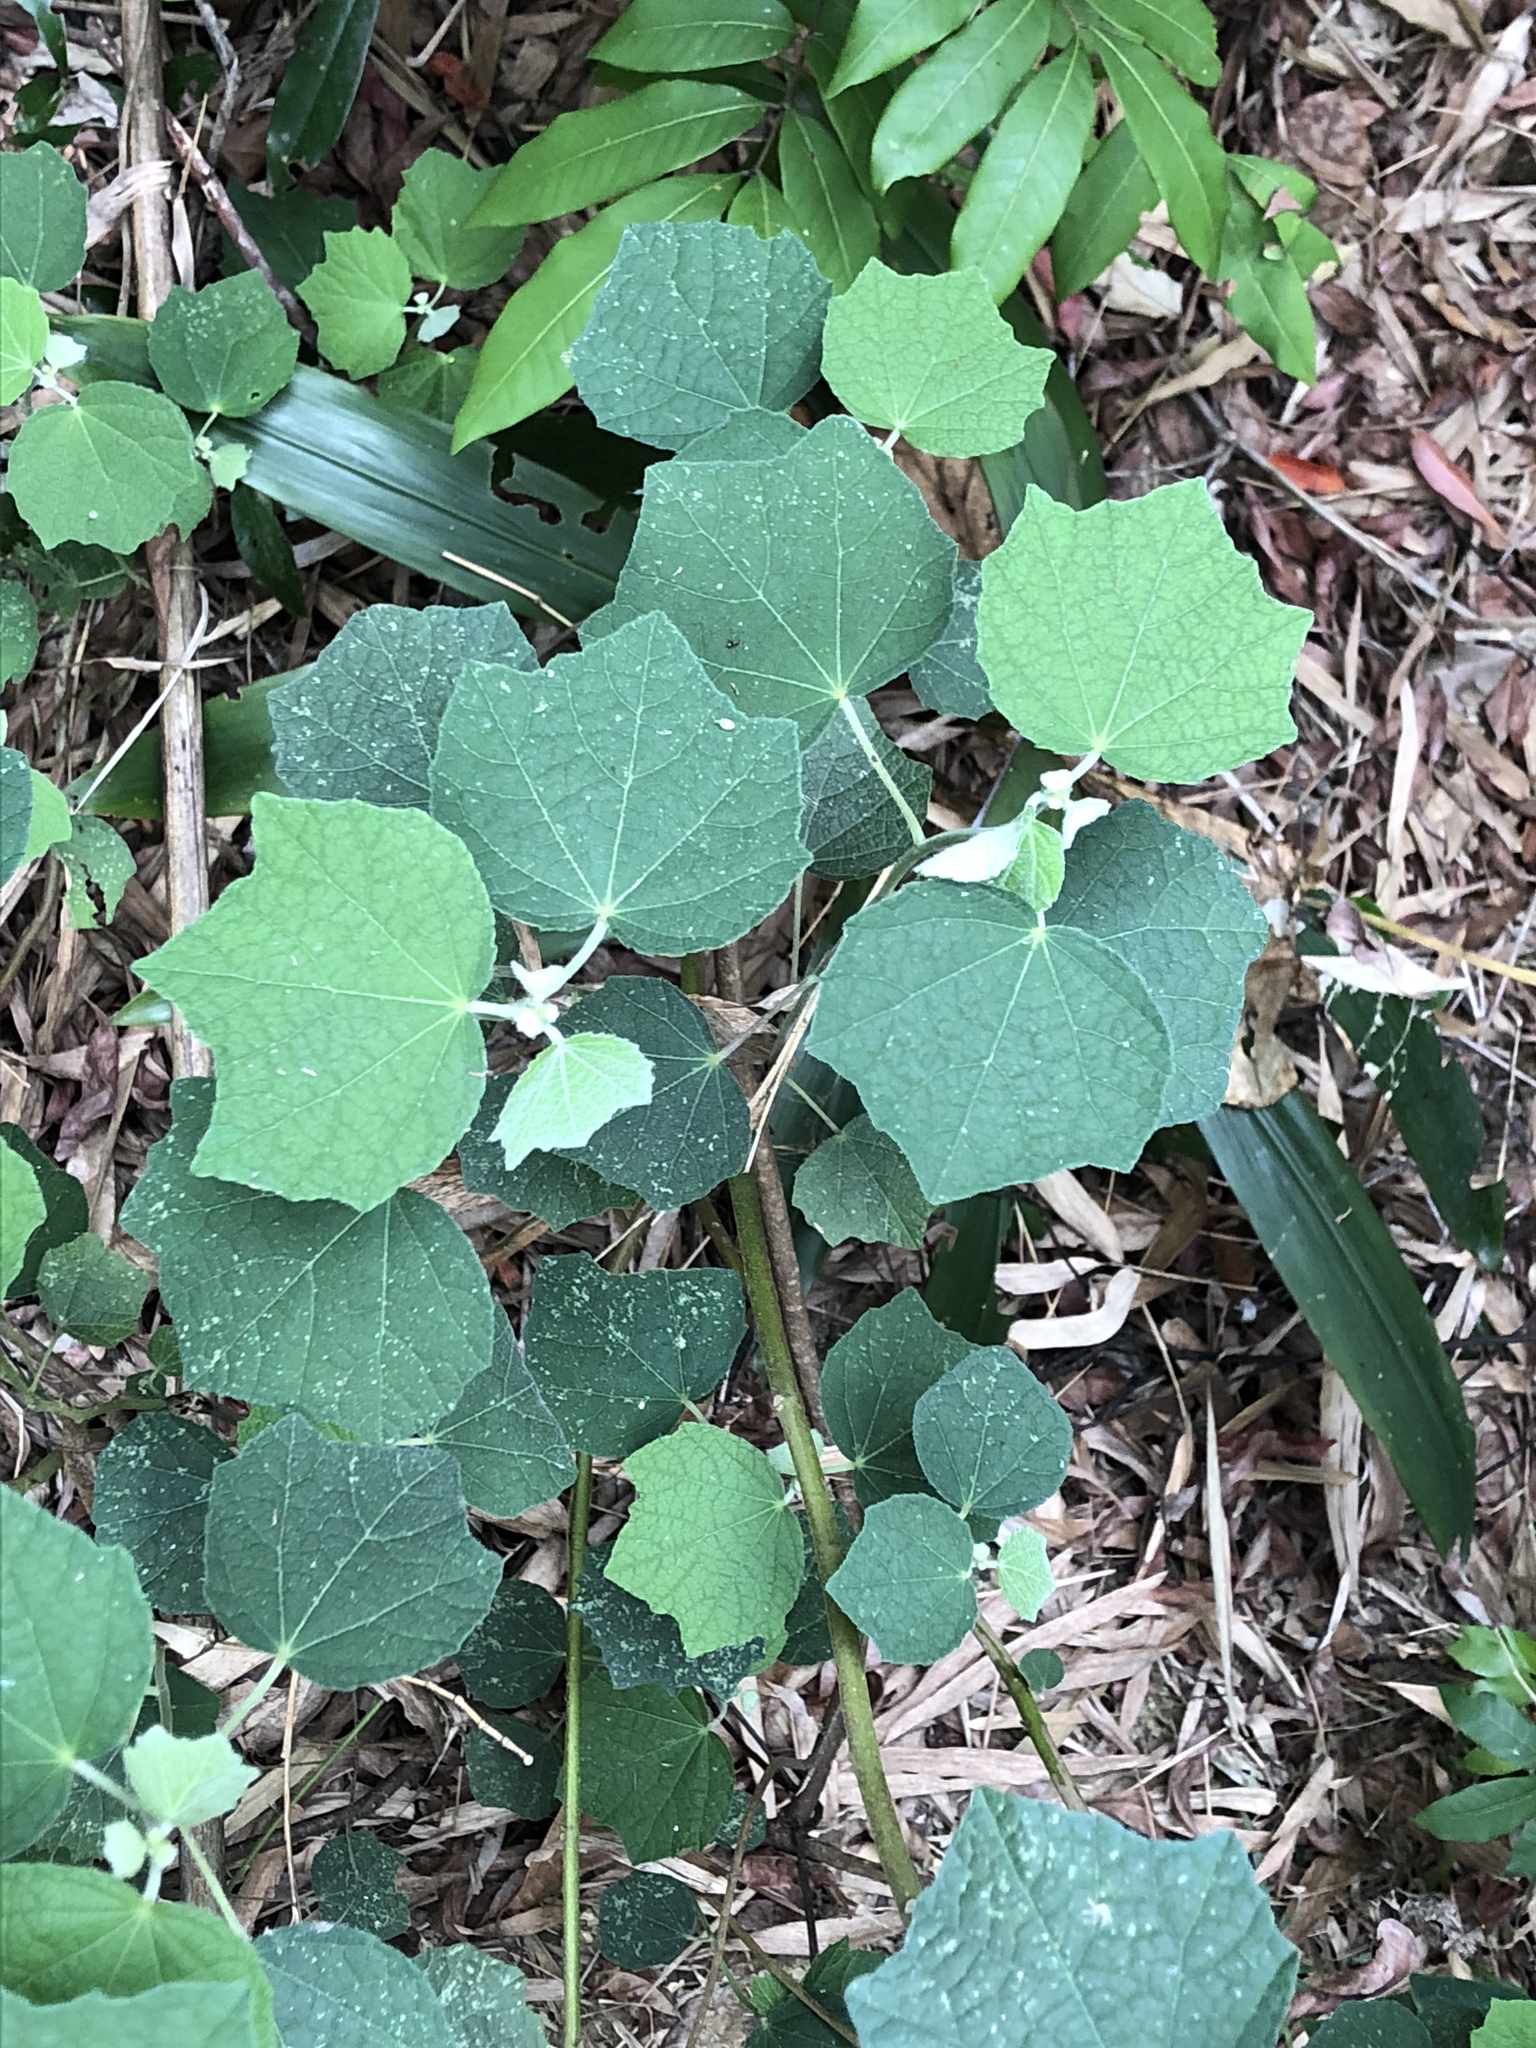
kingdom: Plantae
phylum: Tracheophyta
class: Magnoliopsida
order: Malvales
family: Malvaceae
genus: Urena
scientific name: Urena lobata
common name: Caesarweed
